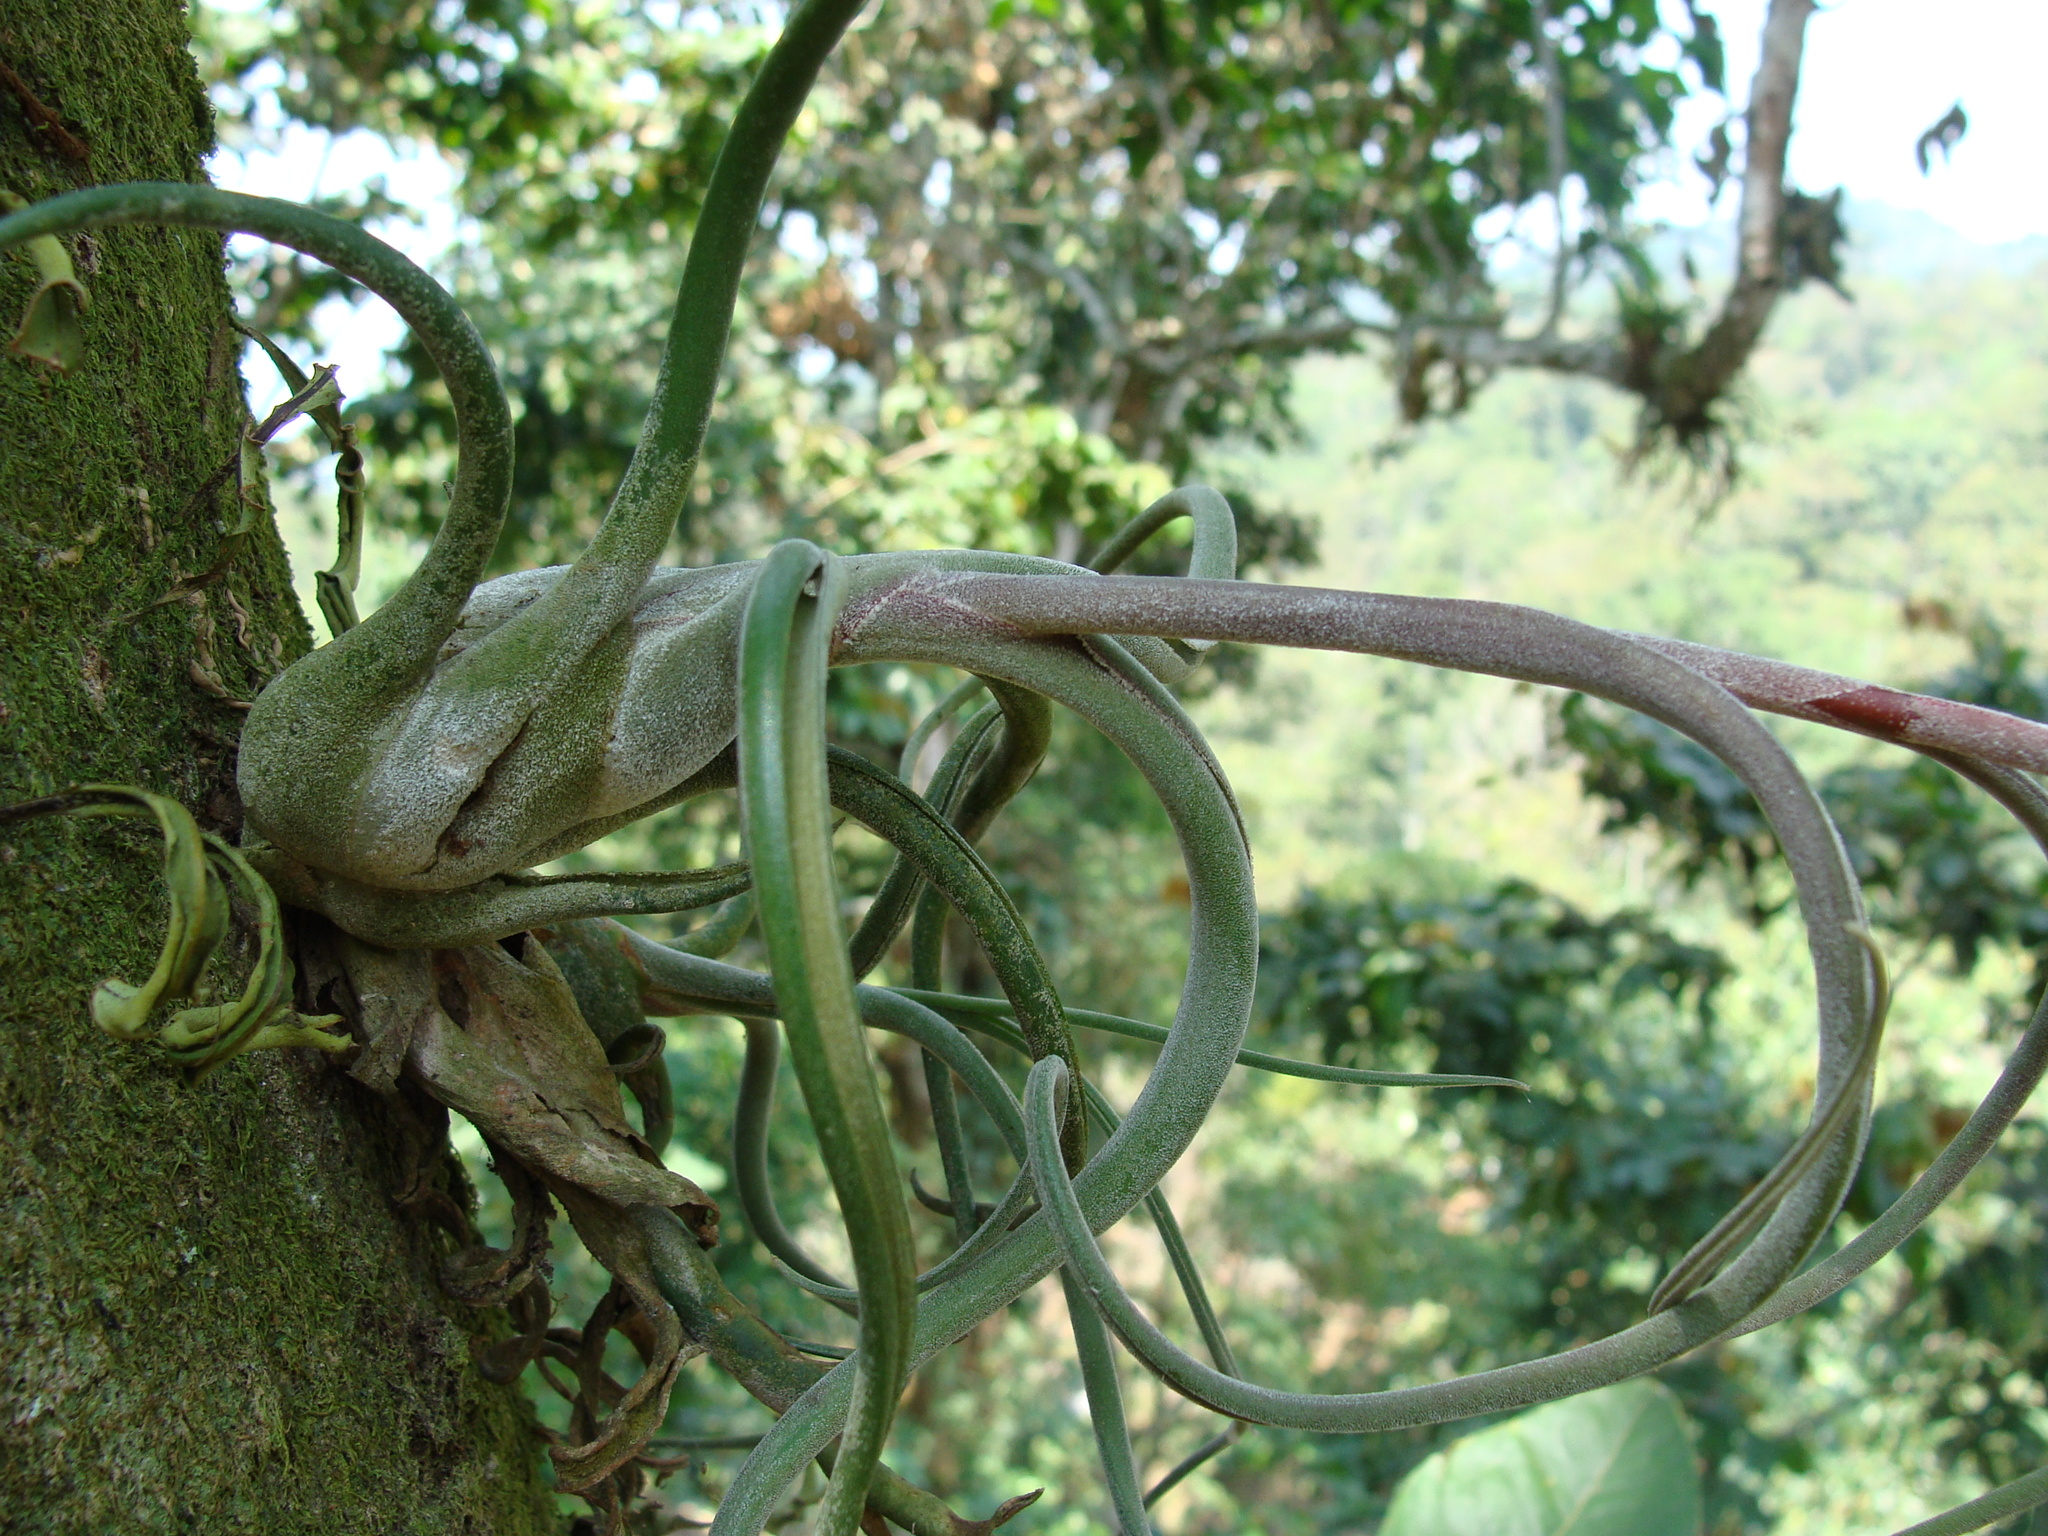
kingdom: Plantae
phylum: Tracheophyta
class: Liliopsida
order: Poales
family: Bromeliaceae
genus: Tillandsia
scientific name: Tillandsia caput-medusae
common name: Octopus plant
